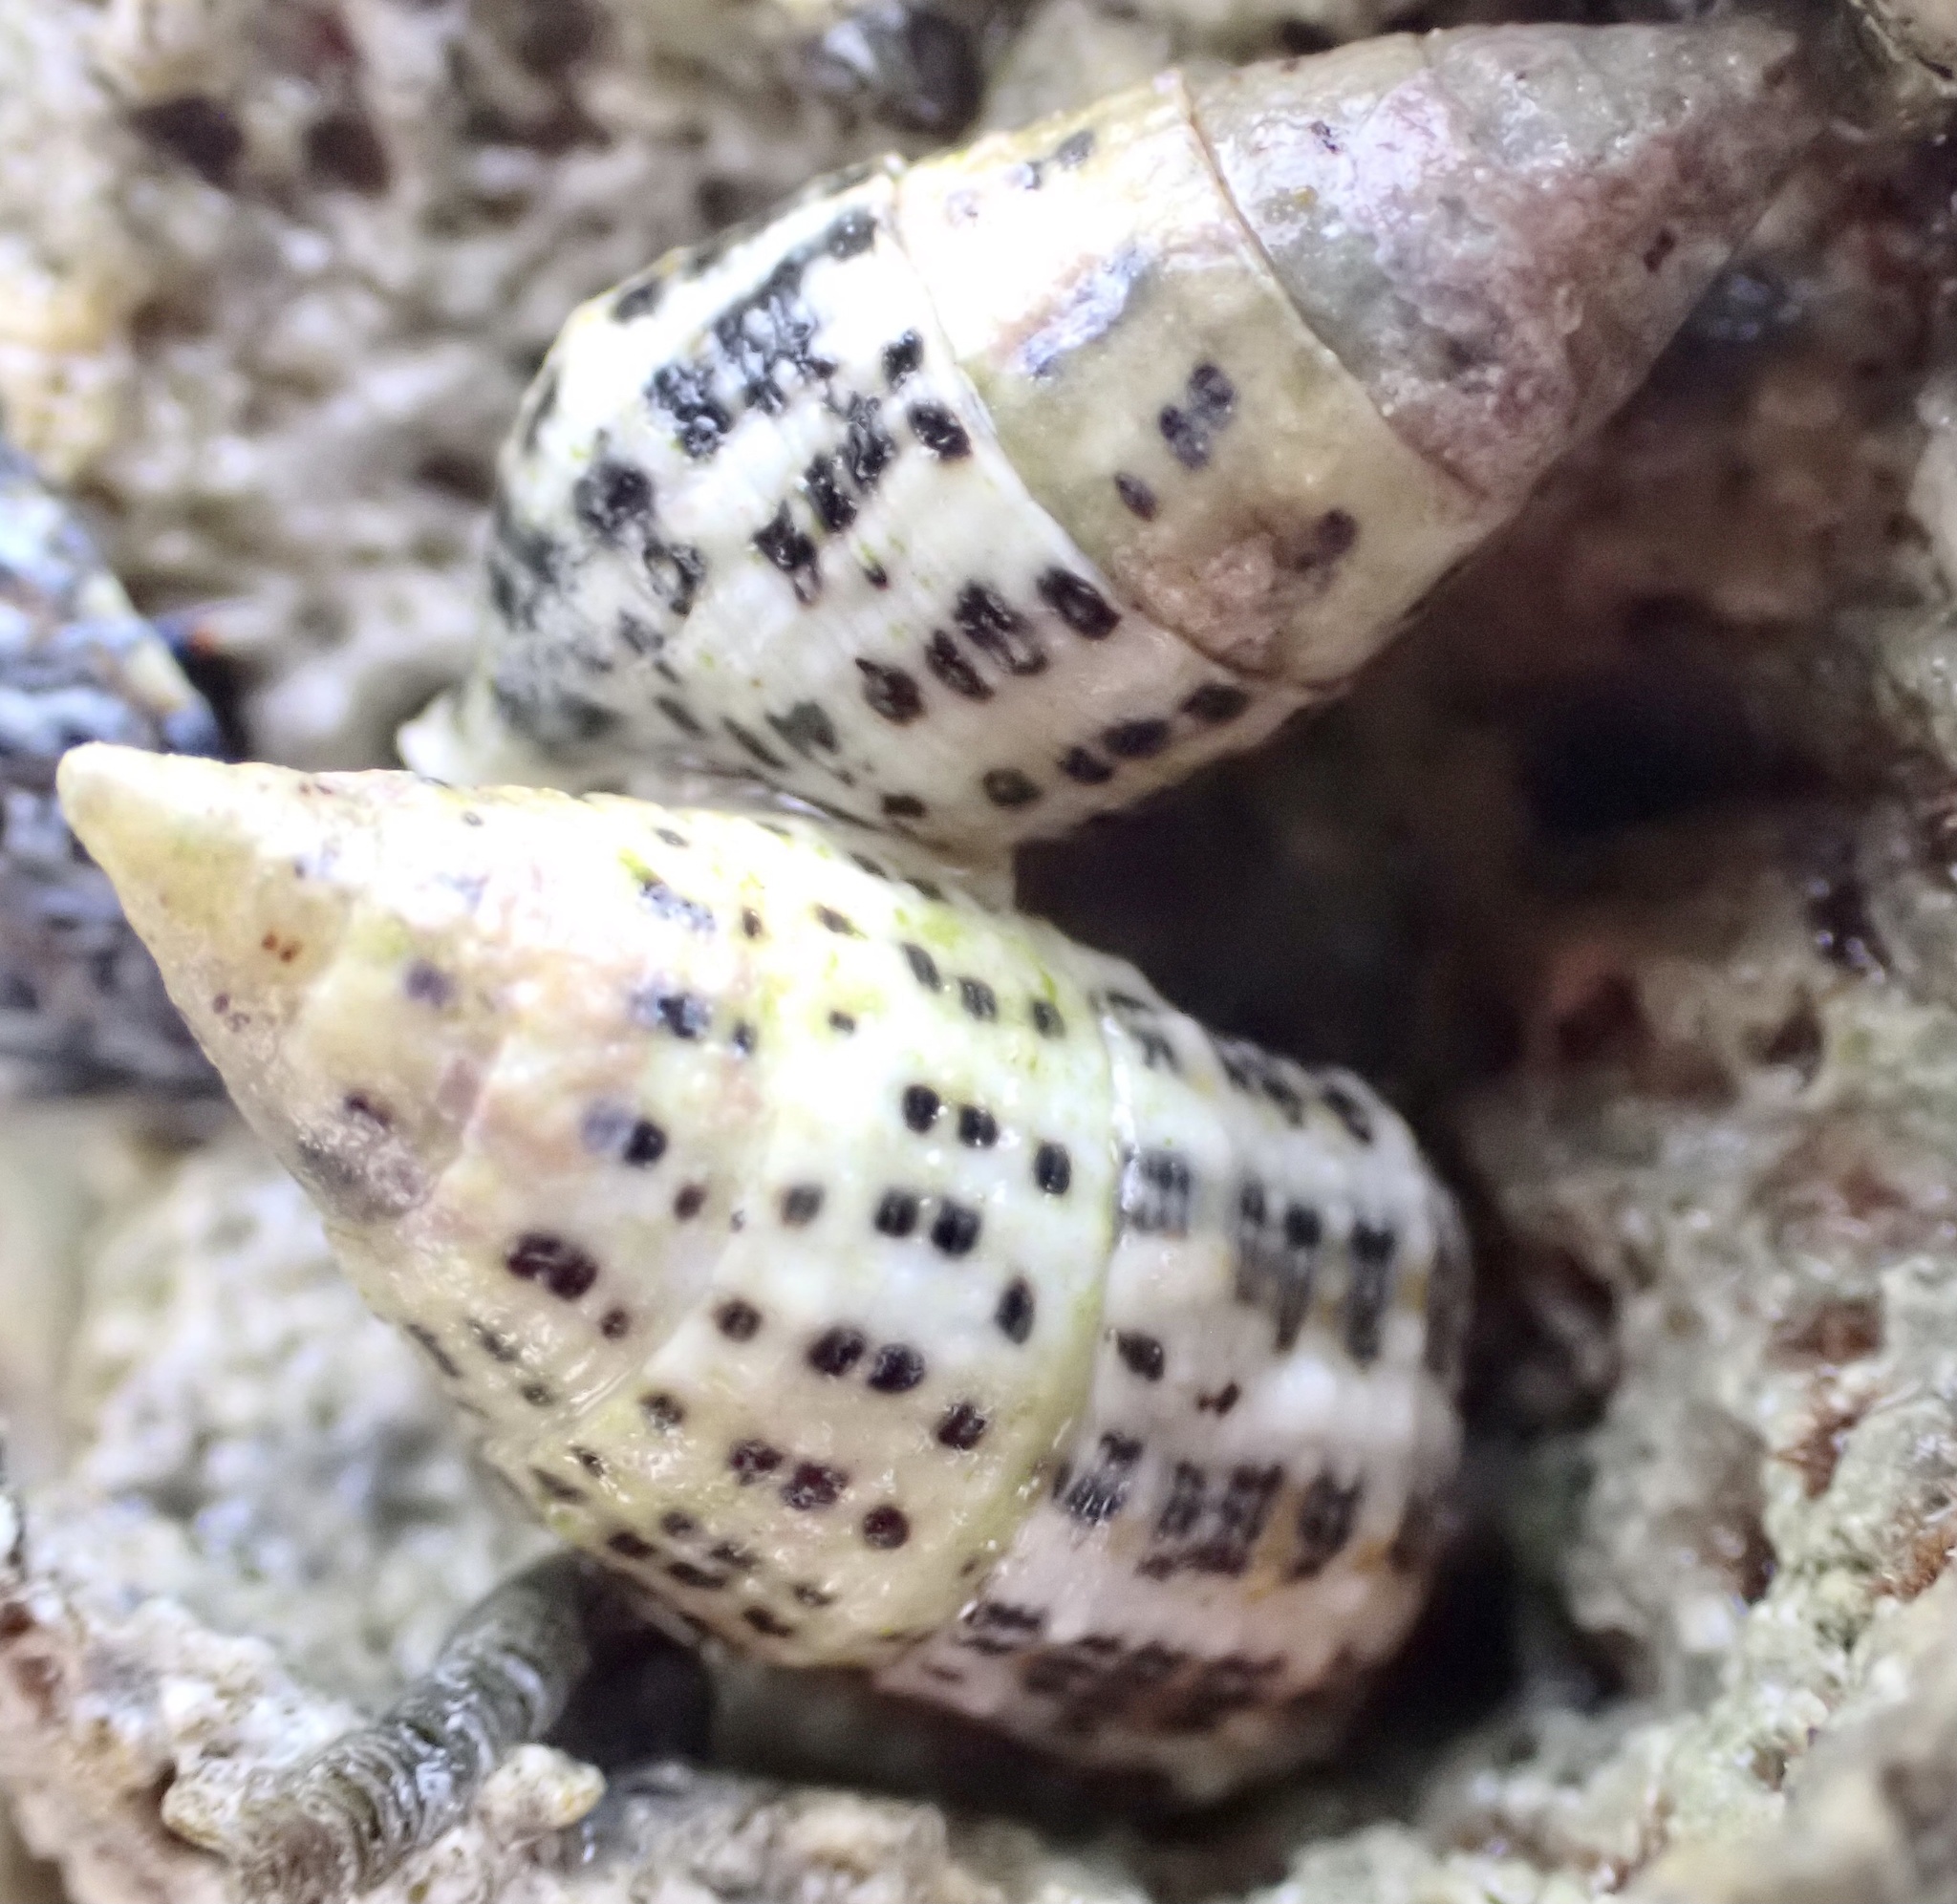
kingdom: Animalia
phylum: Mollusca
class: Gastropoda
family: Cerithiidae
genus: Cerithium
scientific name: Cerithium litteratum
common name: Stocky cerith
